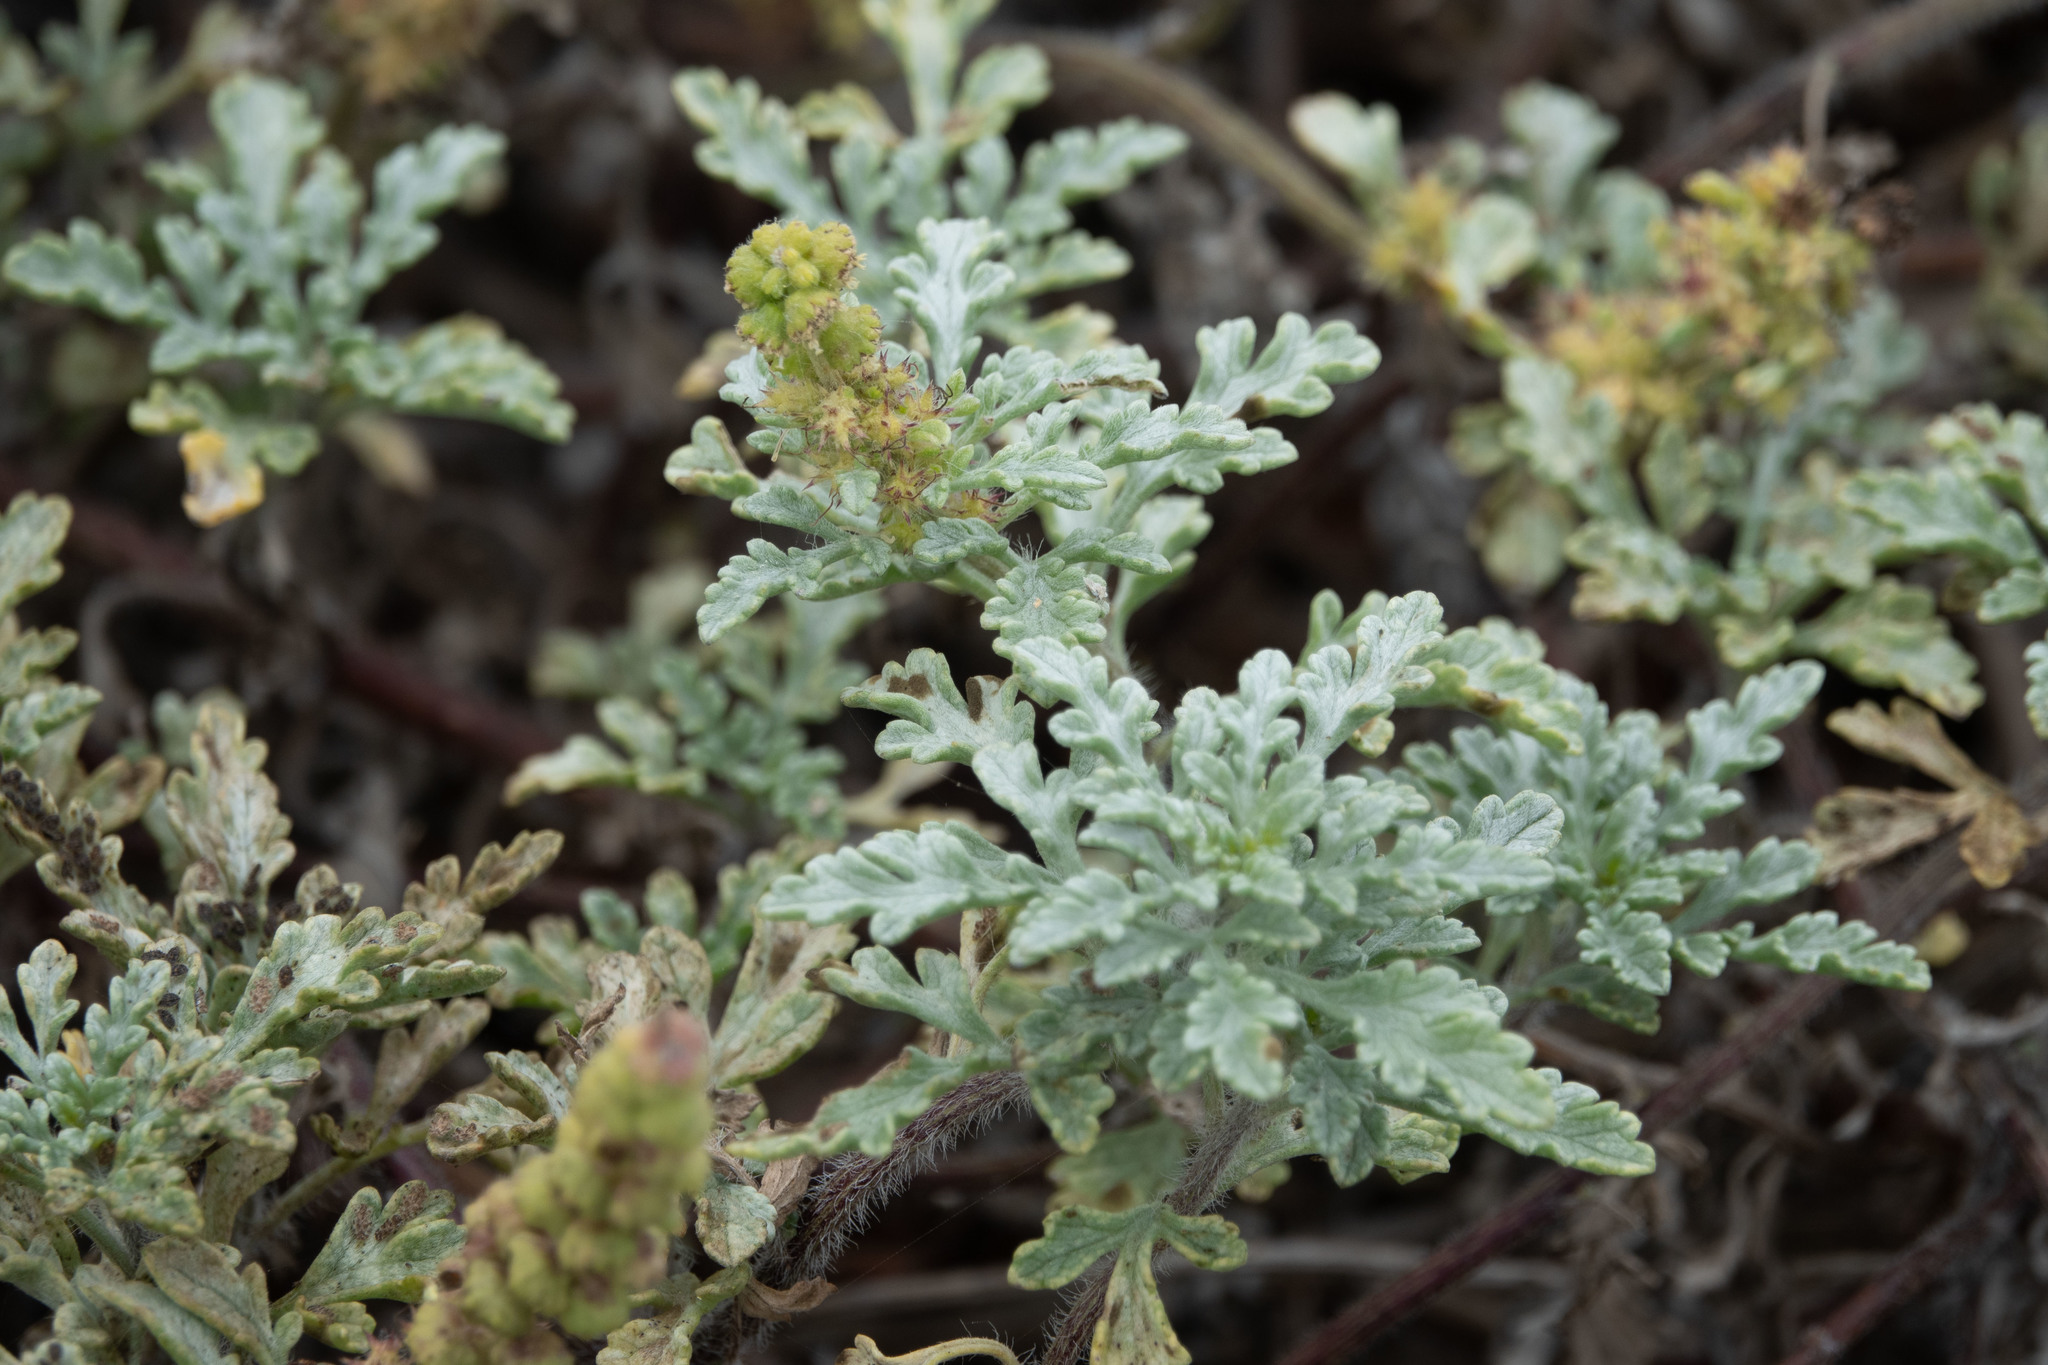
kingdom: Plantae
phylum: Tracheophyta
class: Magnoliopsida
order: Asterales
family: Asteraceae
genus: Ambrosia
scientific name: Ambrosia chamissonis
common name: Beachbur
